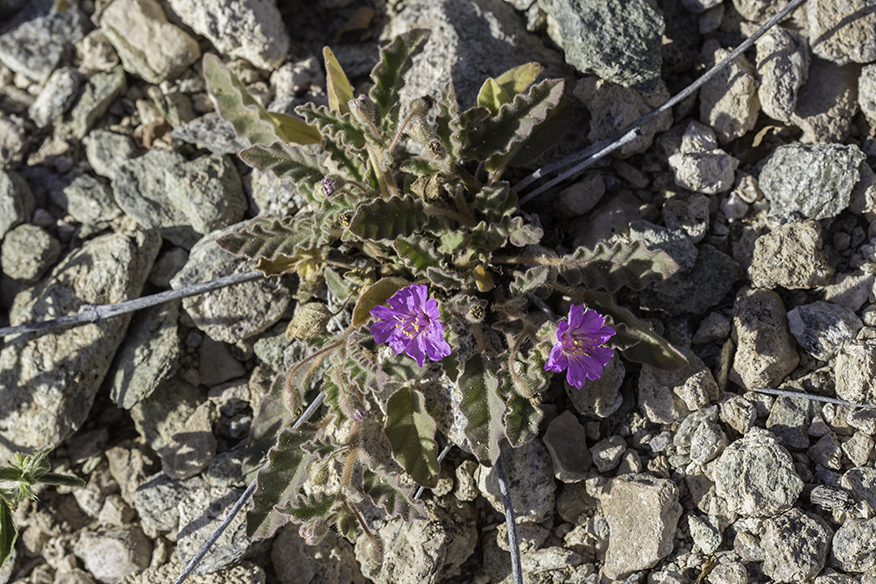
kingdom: Plantae
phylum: Tracheophyta
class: Magnoliopsida
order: Caryophyllales
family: Nyctaginaceae
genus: Allionia
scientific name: Allionia incarnata
